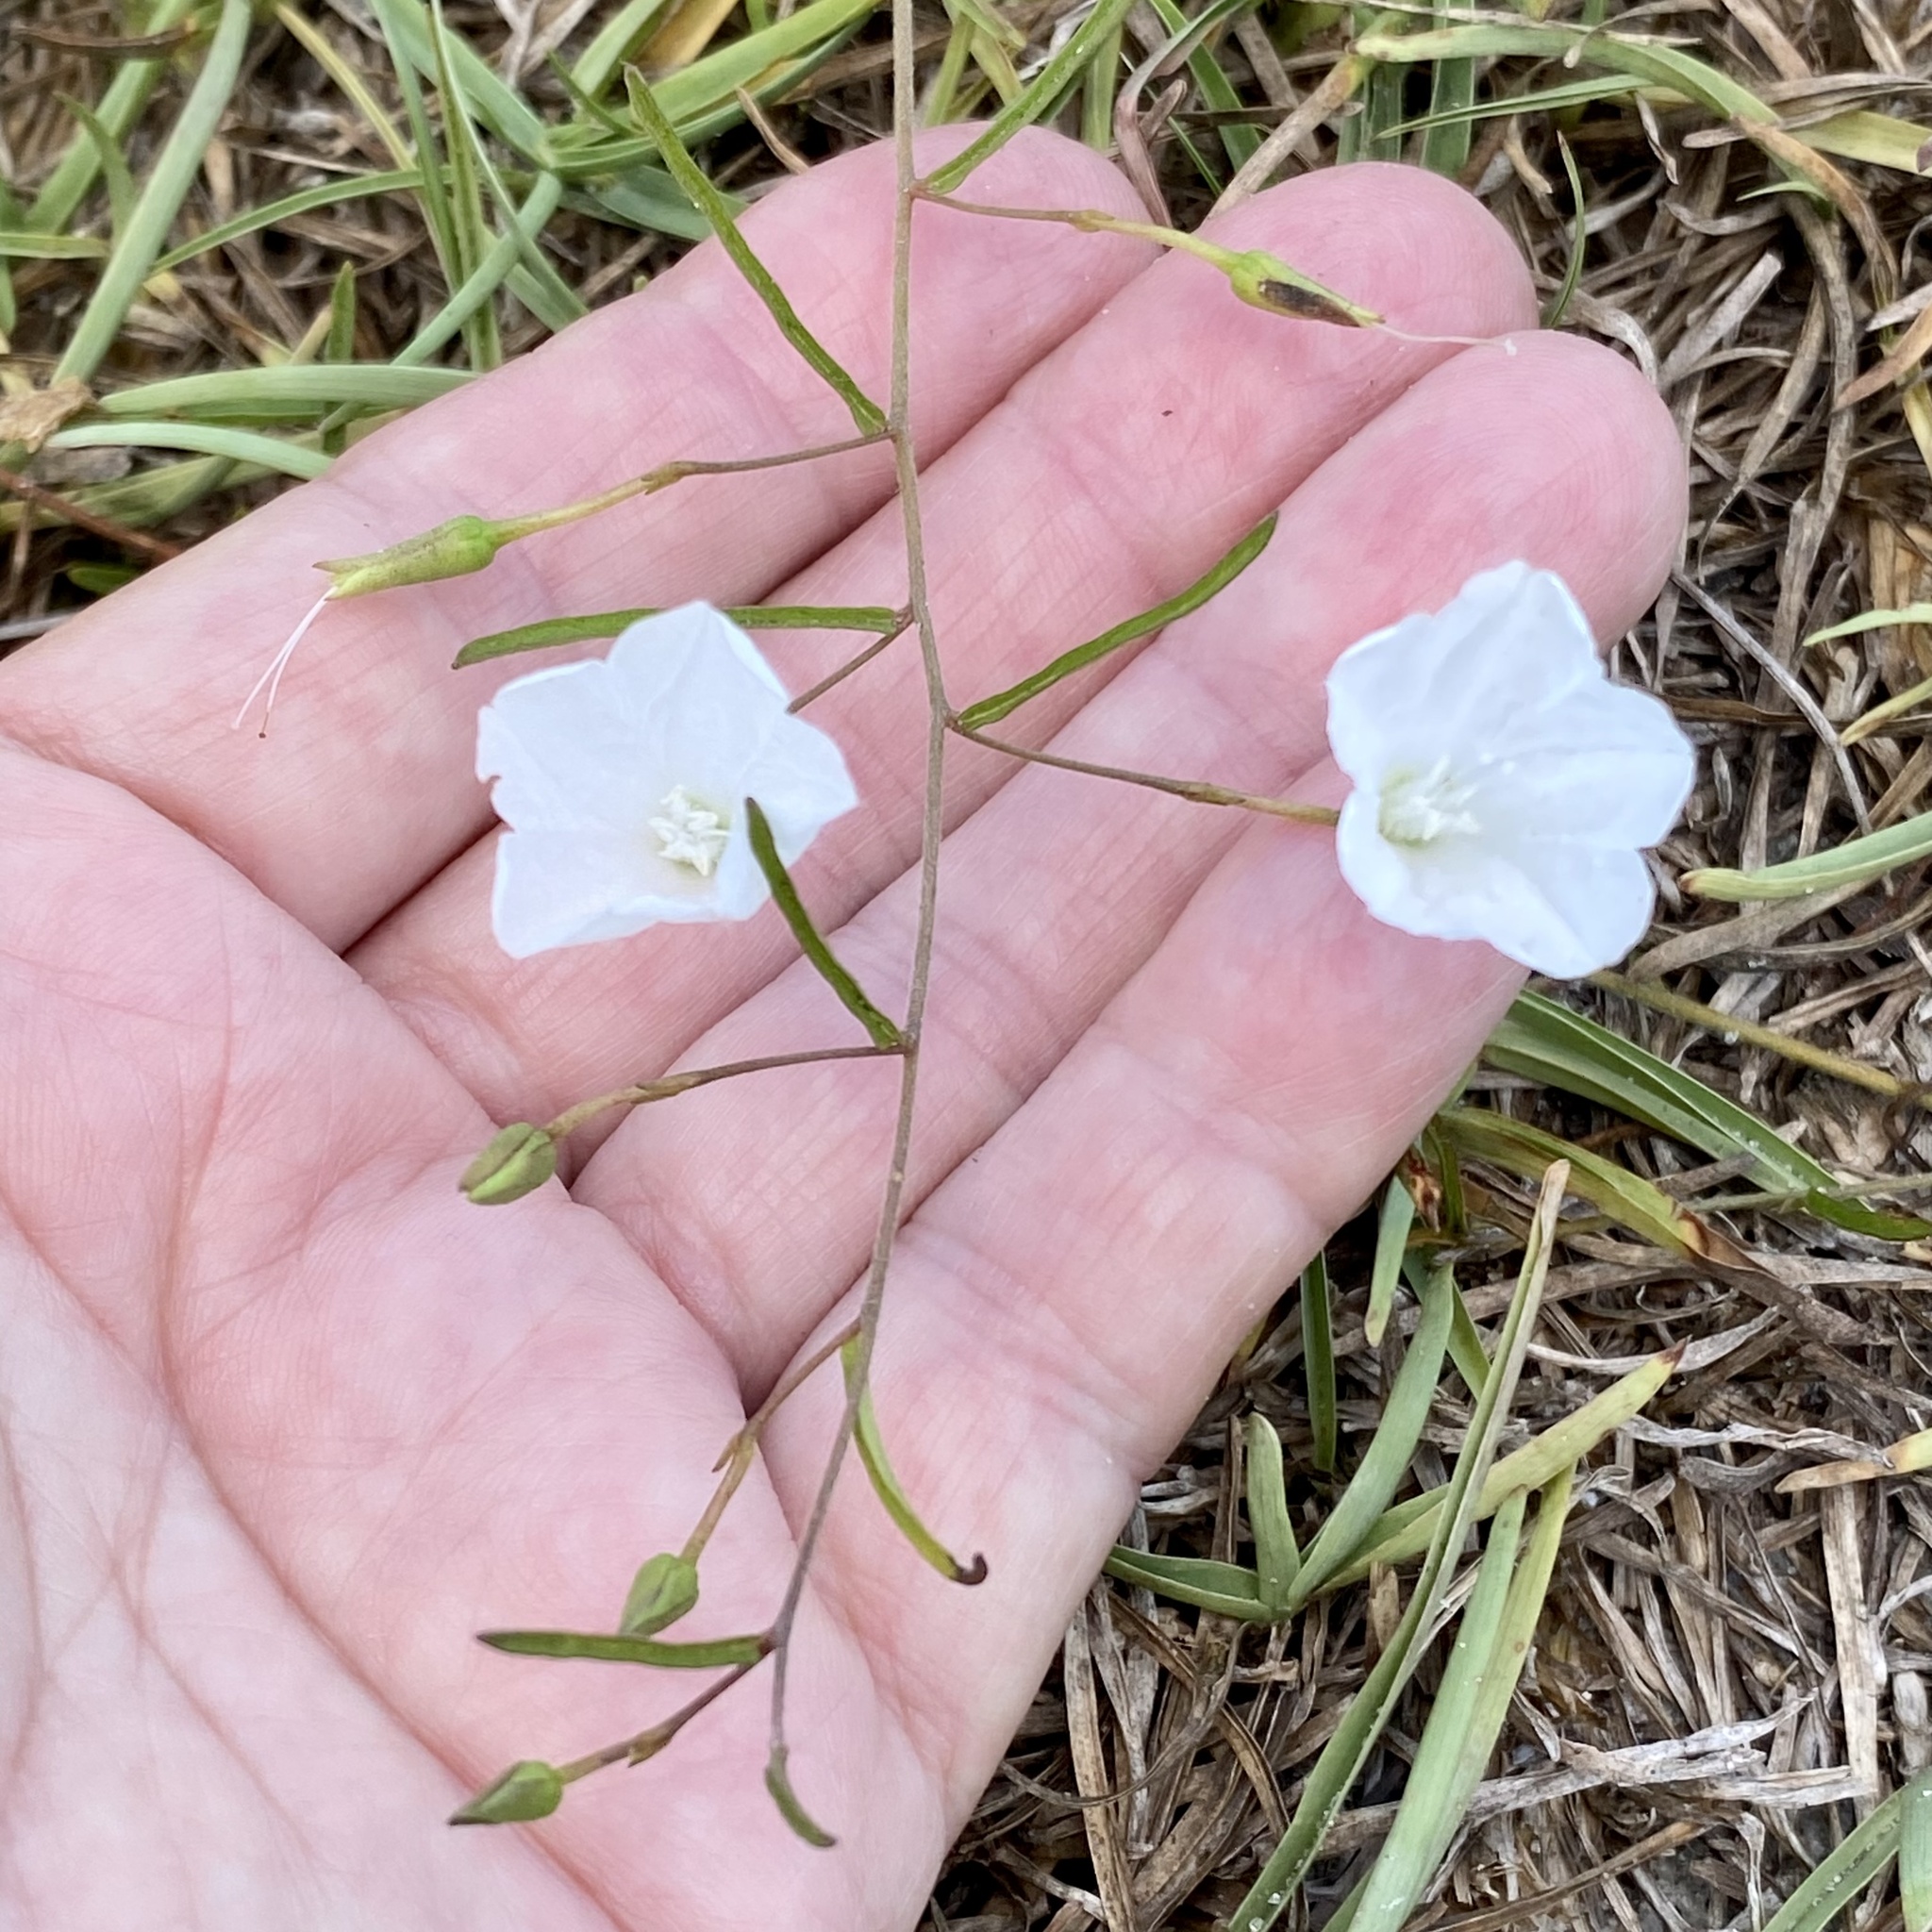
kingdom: Plantae
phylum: Tracheophyta
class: Magnoliopsida
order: Solanales
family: Convolvulaceae
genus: Stylisma
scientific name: Stylisma patens
